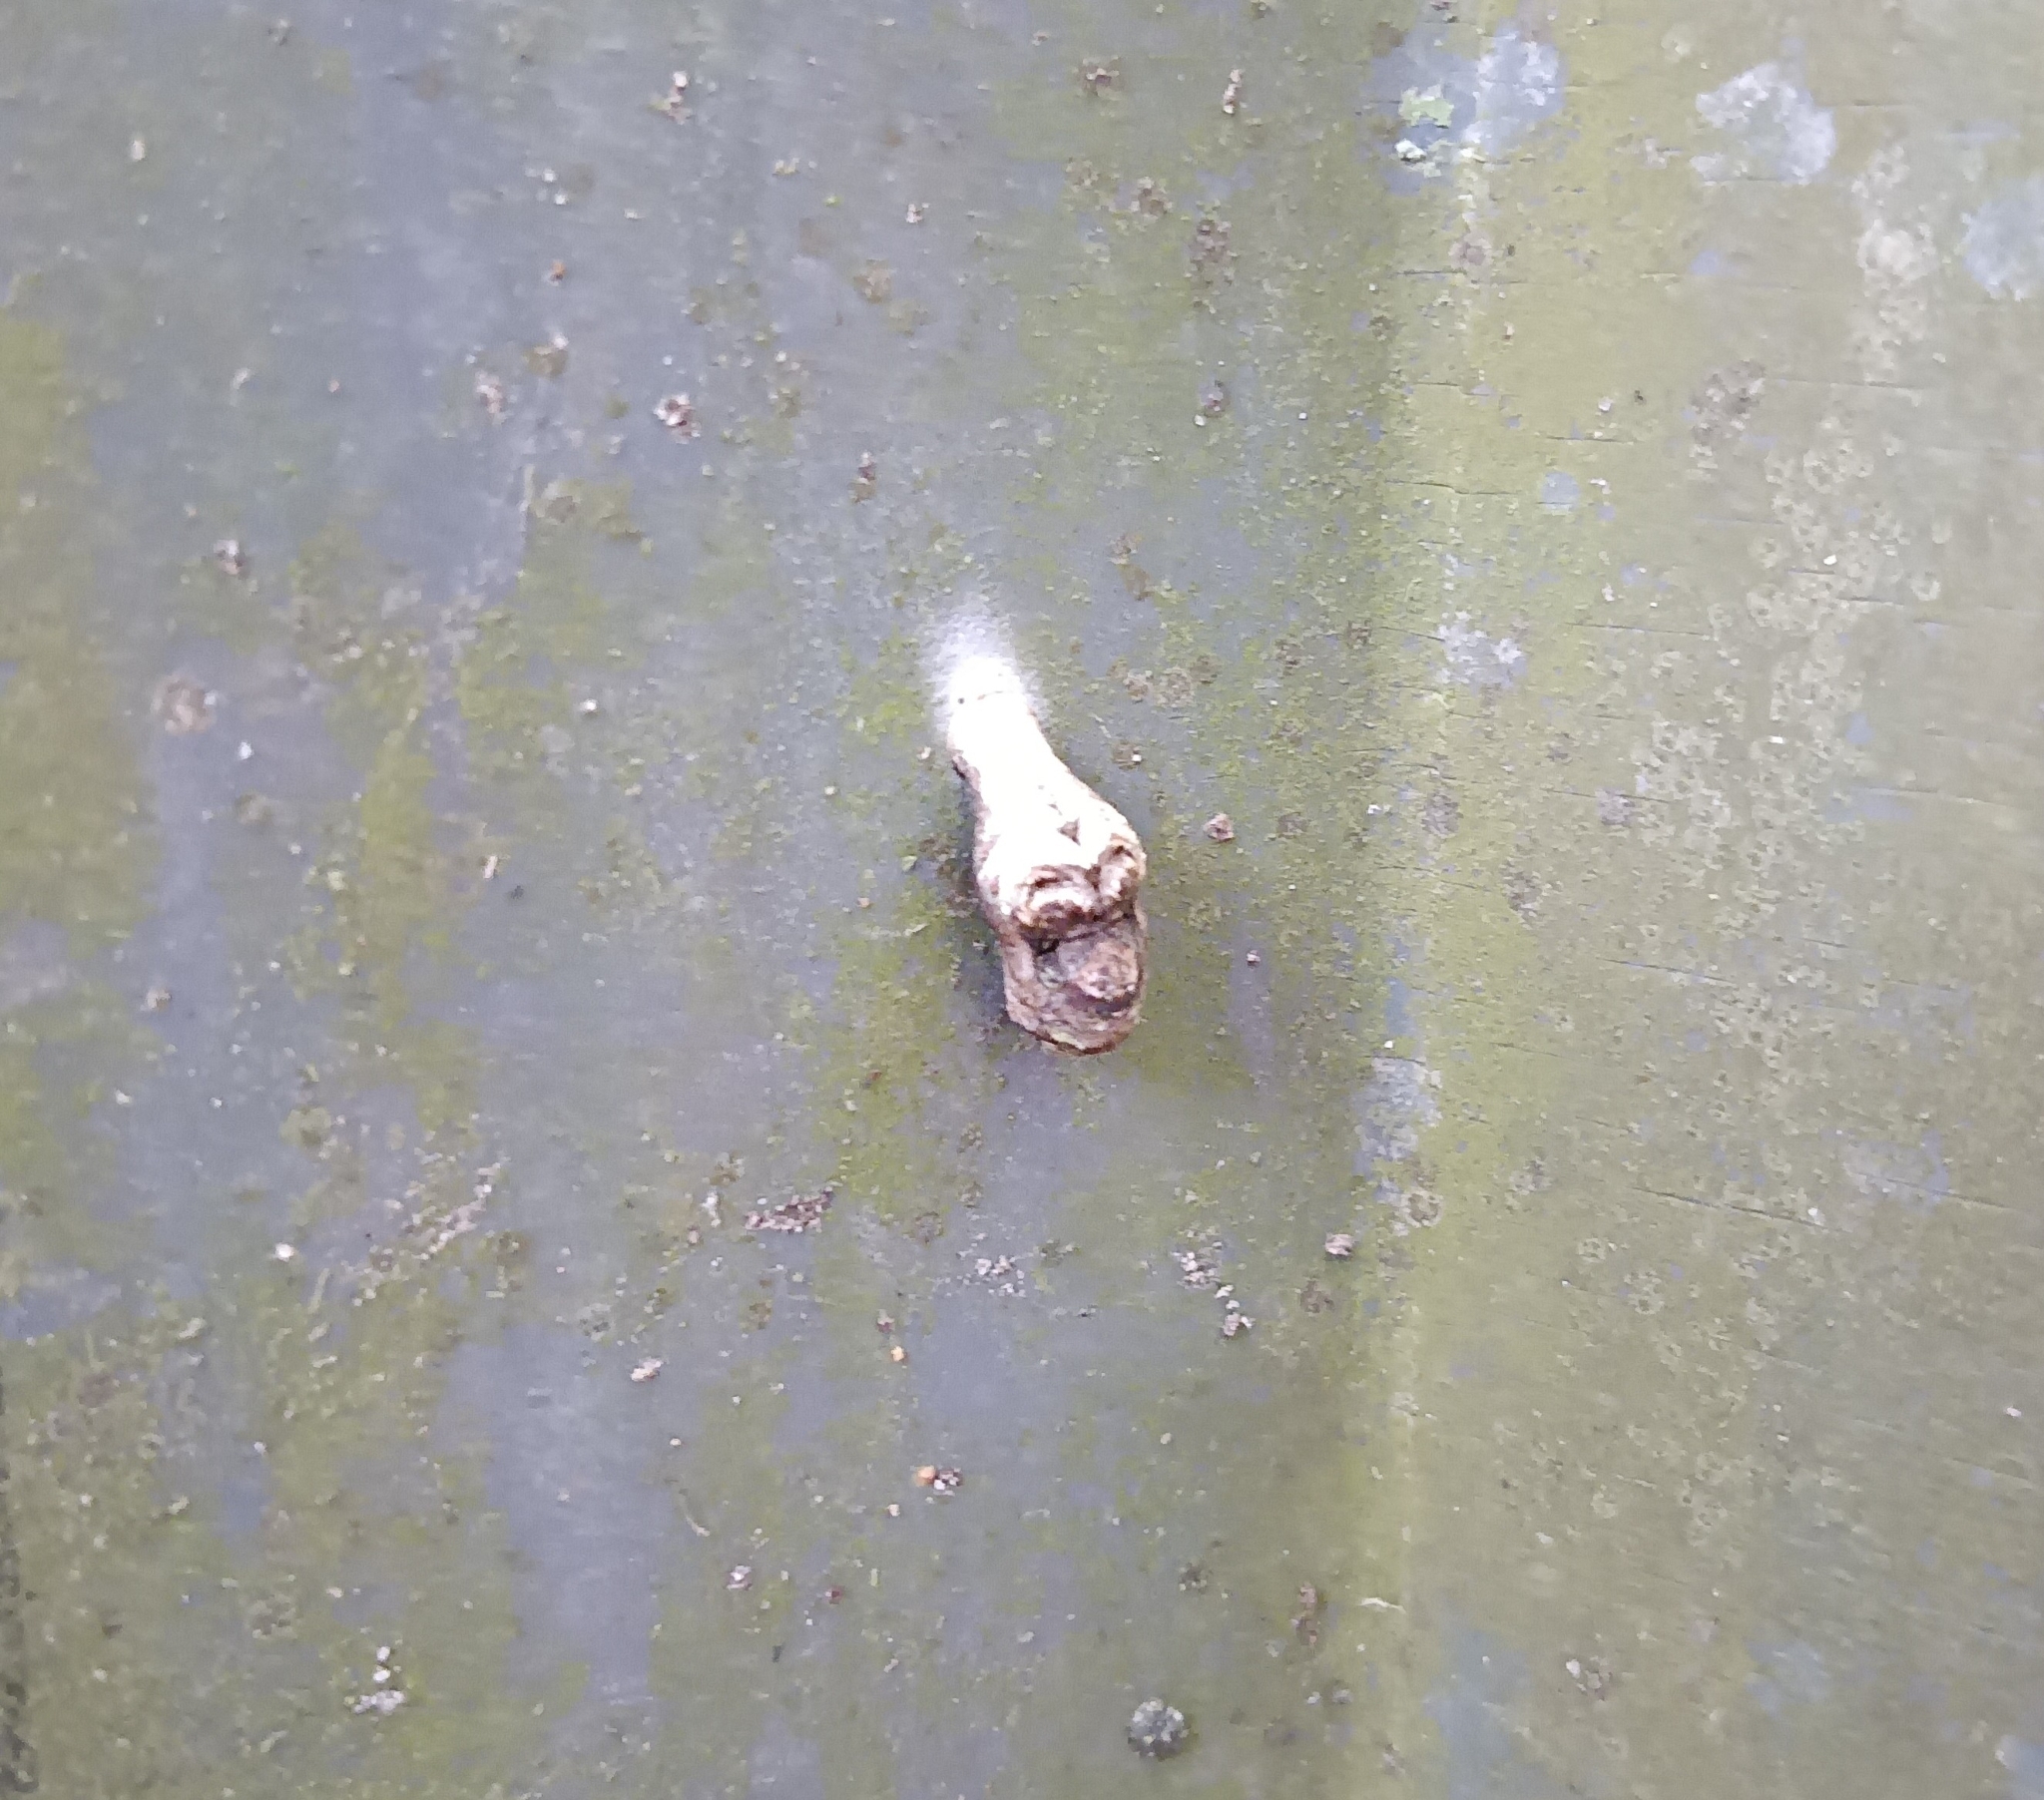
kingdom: Animalia
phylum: Arthropoda
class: Insecta
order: Lepidoptera
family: Lycaenidae
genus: Tajuria
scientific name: Tajuria cippus
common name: Peacock royal
